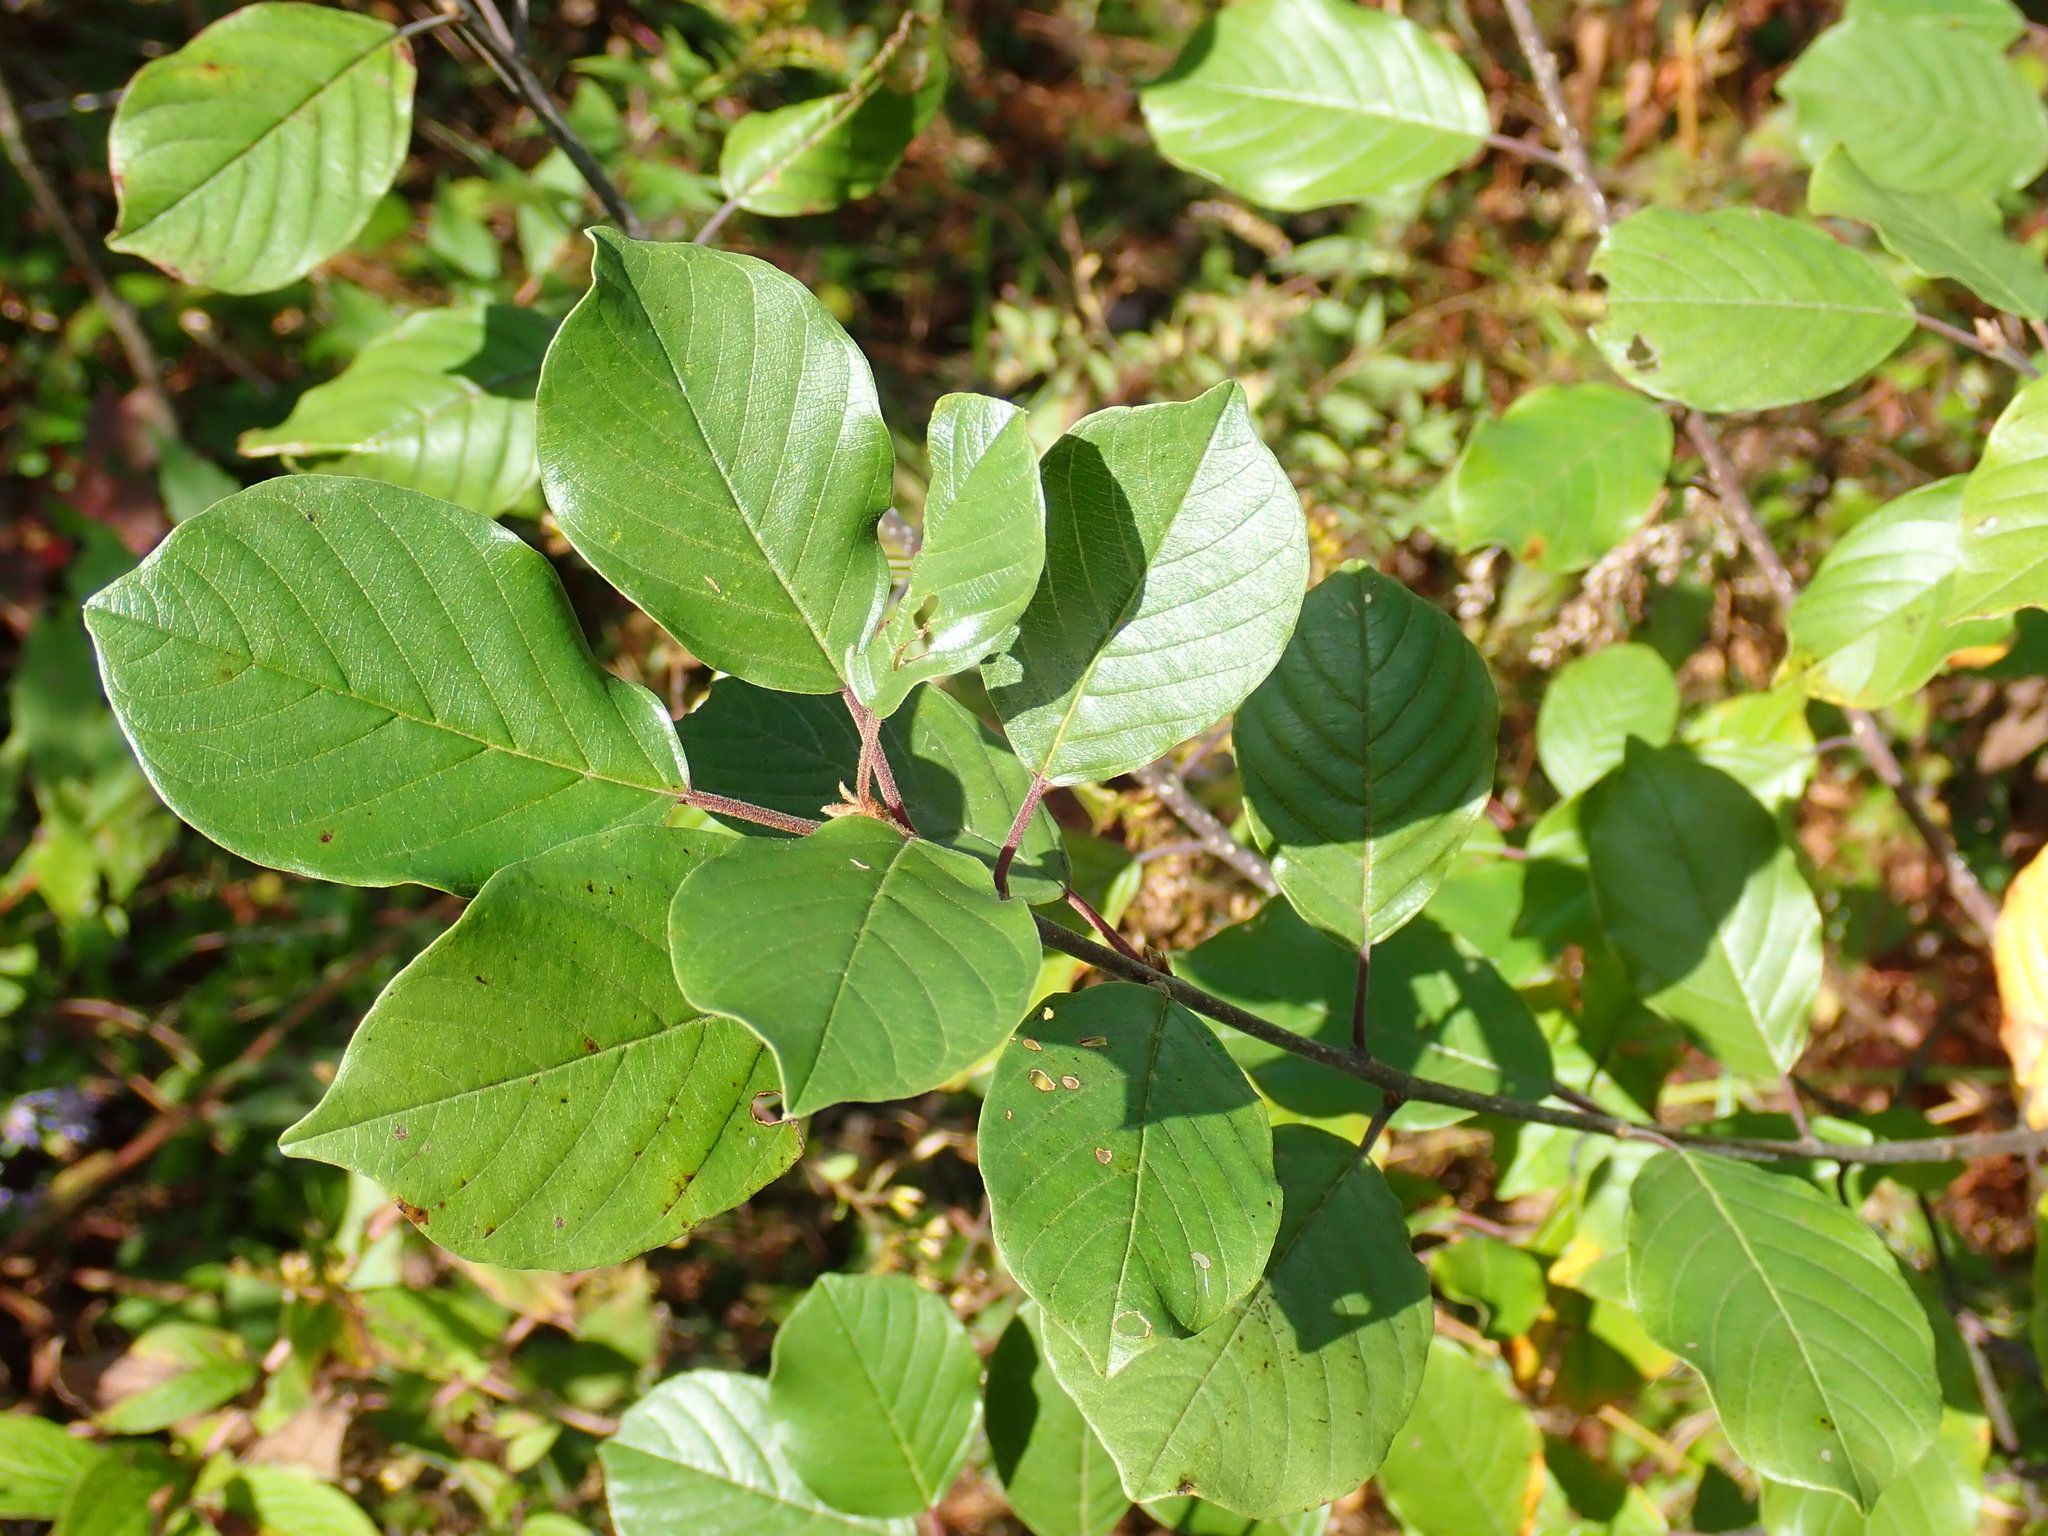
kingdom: Plantae
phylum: Tracheophyta
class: Magnoliopsida
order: Rosales
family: Rhamnaceae
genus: Frangula
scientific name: Frangula alnus
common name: Alder buckthorn
